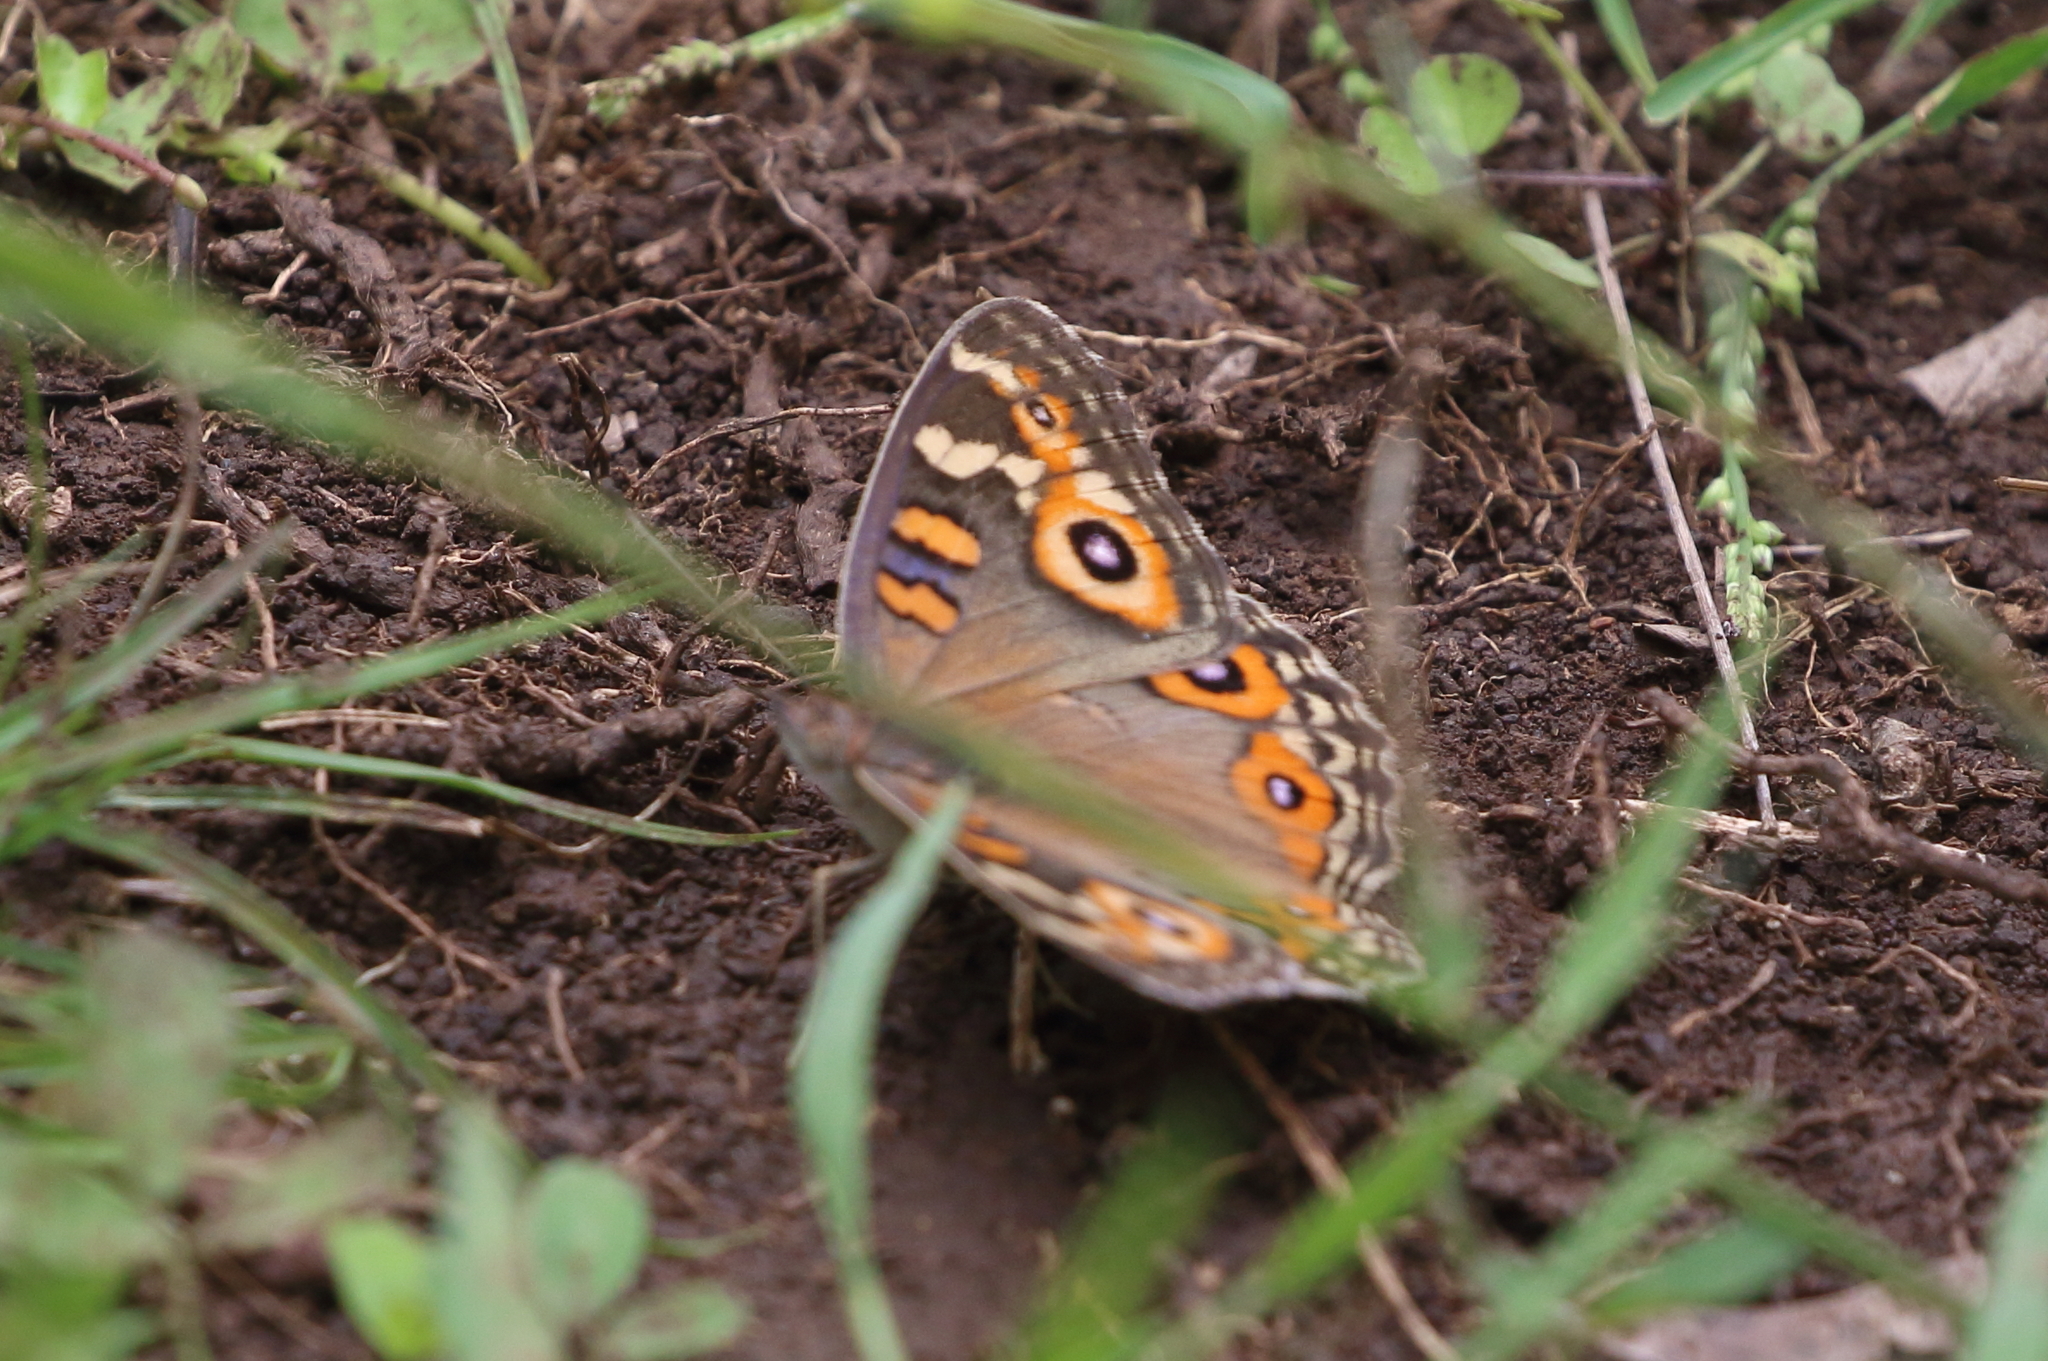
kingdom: Animalia
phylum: Arthropoda
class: Insecta
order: Lepidoptera
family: Nymphalidae
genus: Junonia
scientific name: Junonia villida
